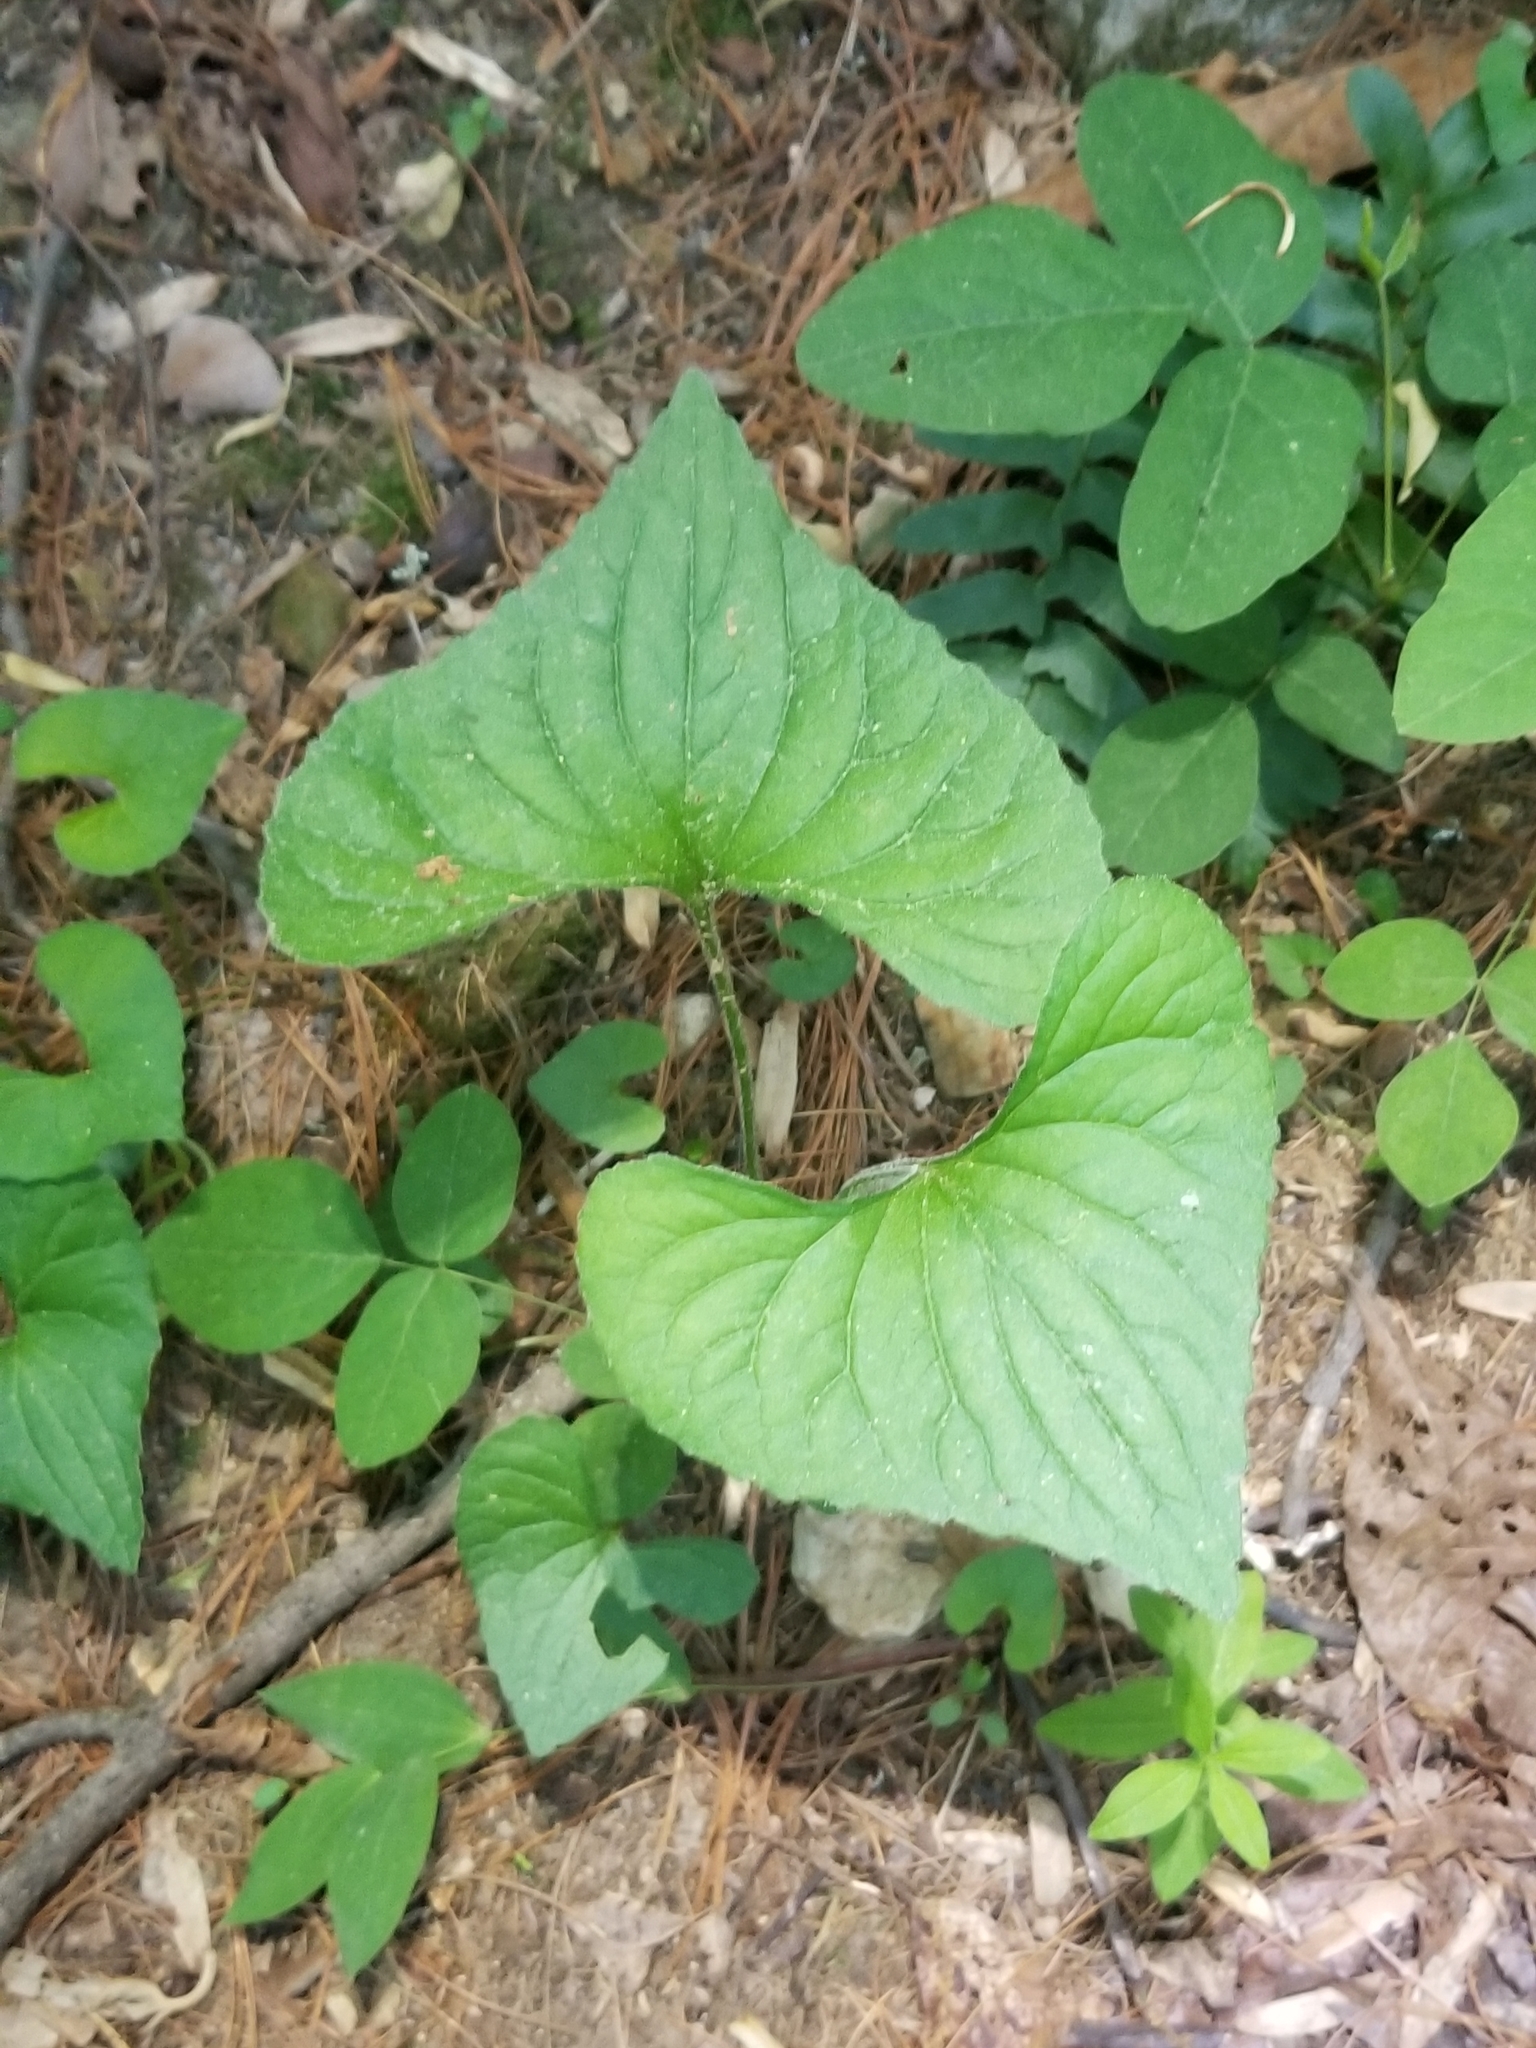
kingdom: Plantae
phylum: Tracheophyta
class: Magnoliopsida
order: Malpighiales
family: Violaceae
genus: Viola
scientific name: Viola sororia
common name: Dooryard violet
